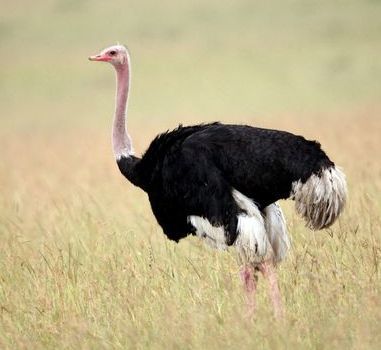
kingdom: Animalia
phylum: Chordata
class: Aves
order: Struthioniformes
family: Struthionidae
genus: Struthio
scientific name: Struthio camelus
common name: Common ostrich
